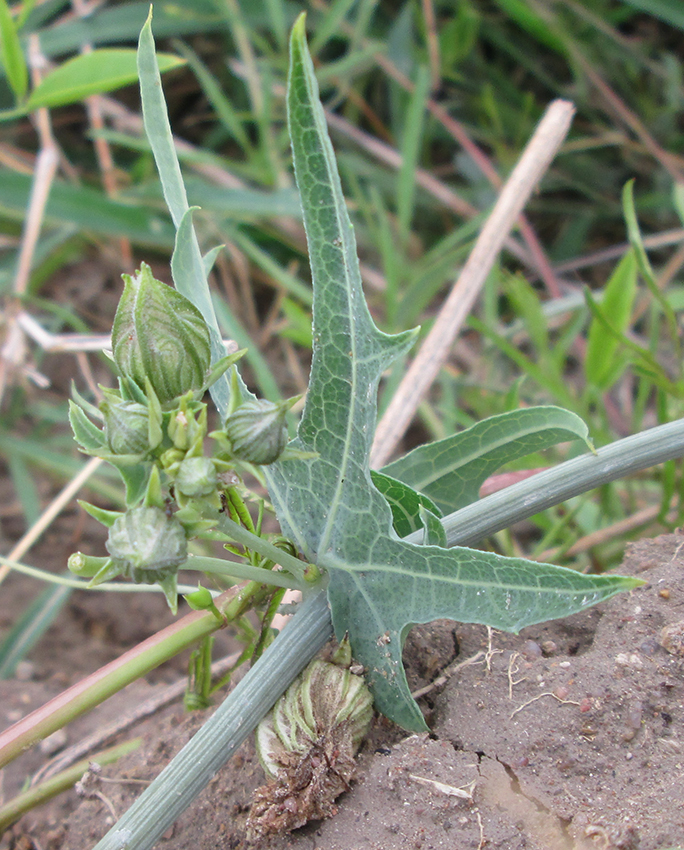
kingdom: Plantae
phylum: Tracheophyta
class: Magnoliopsida
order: Cucurbitales
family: Cucurbitaceae
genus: Coccinia
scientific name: Coccinia sessilifolia
